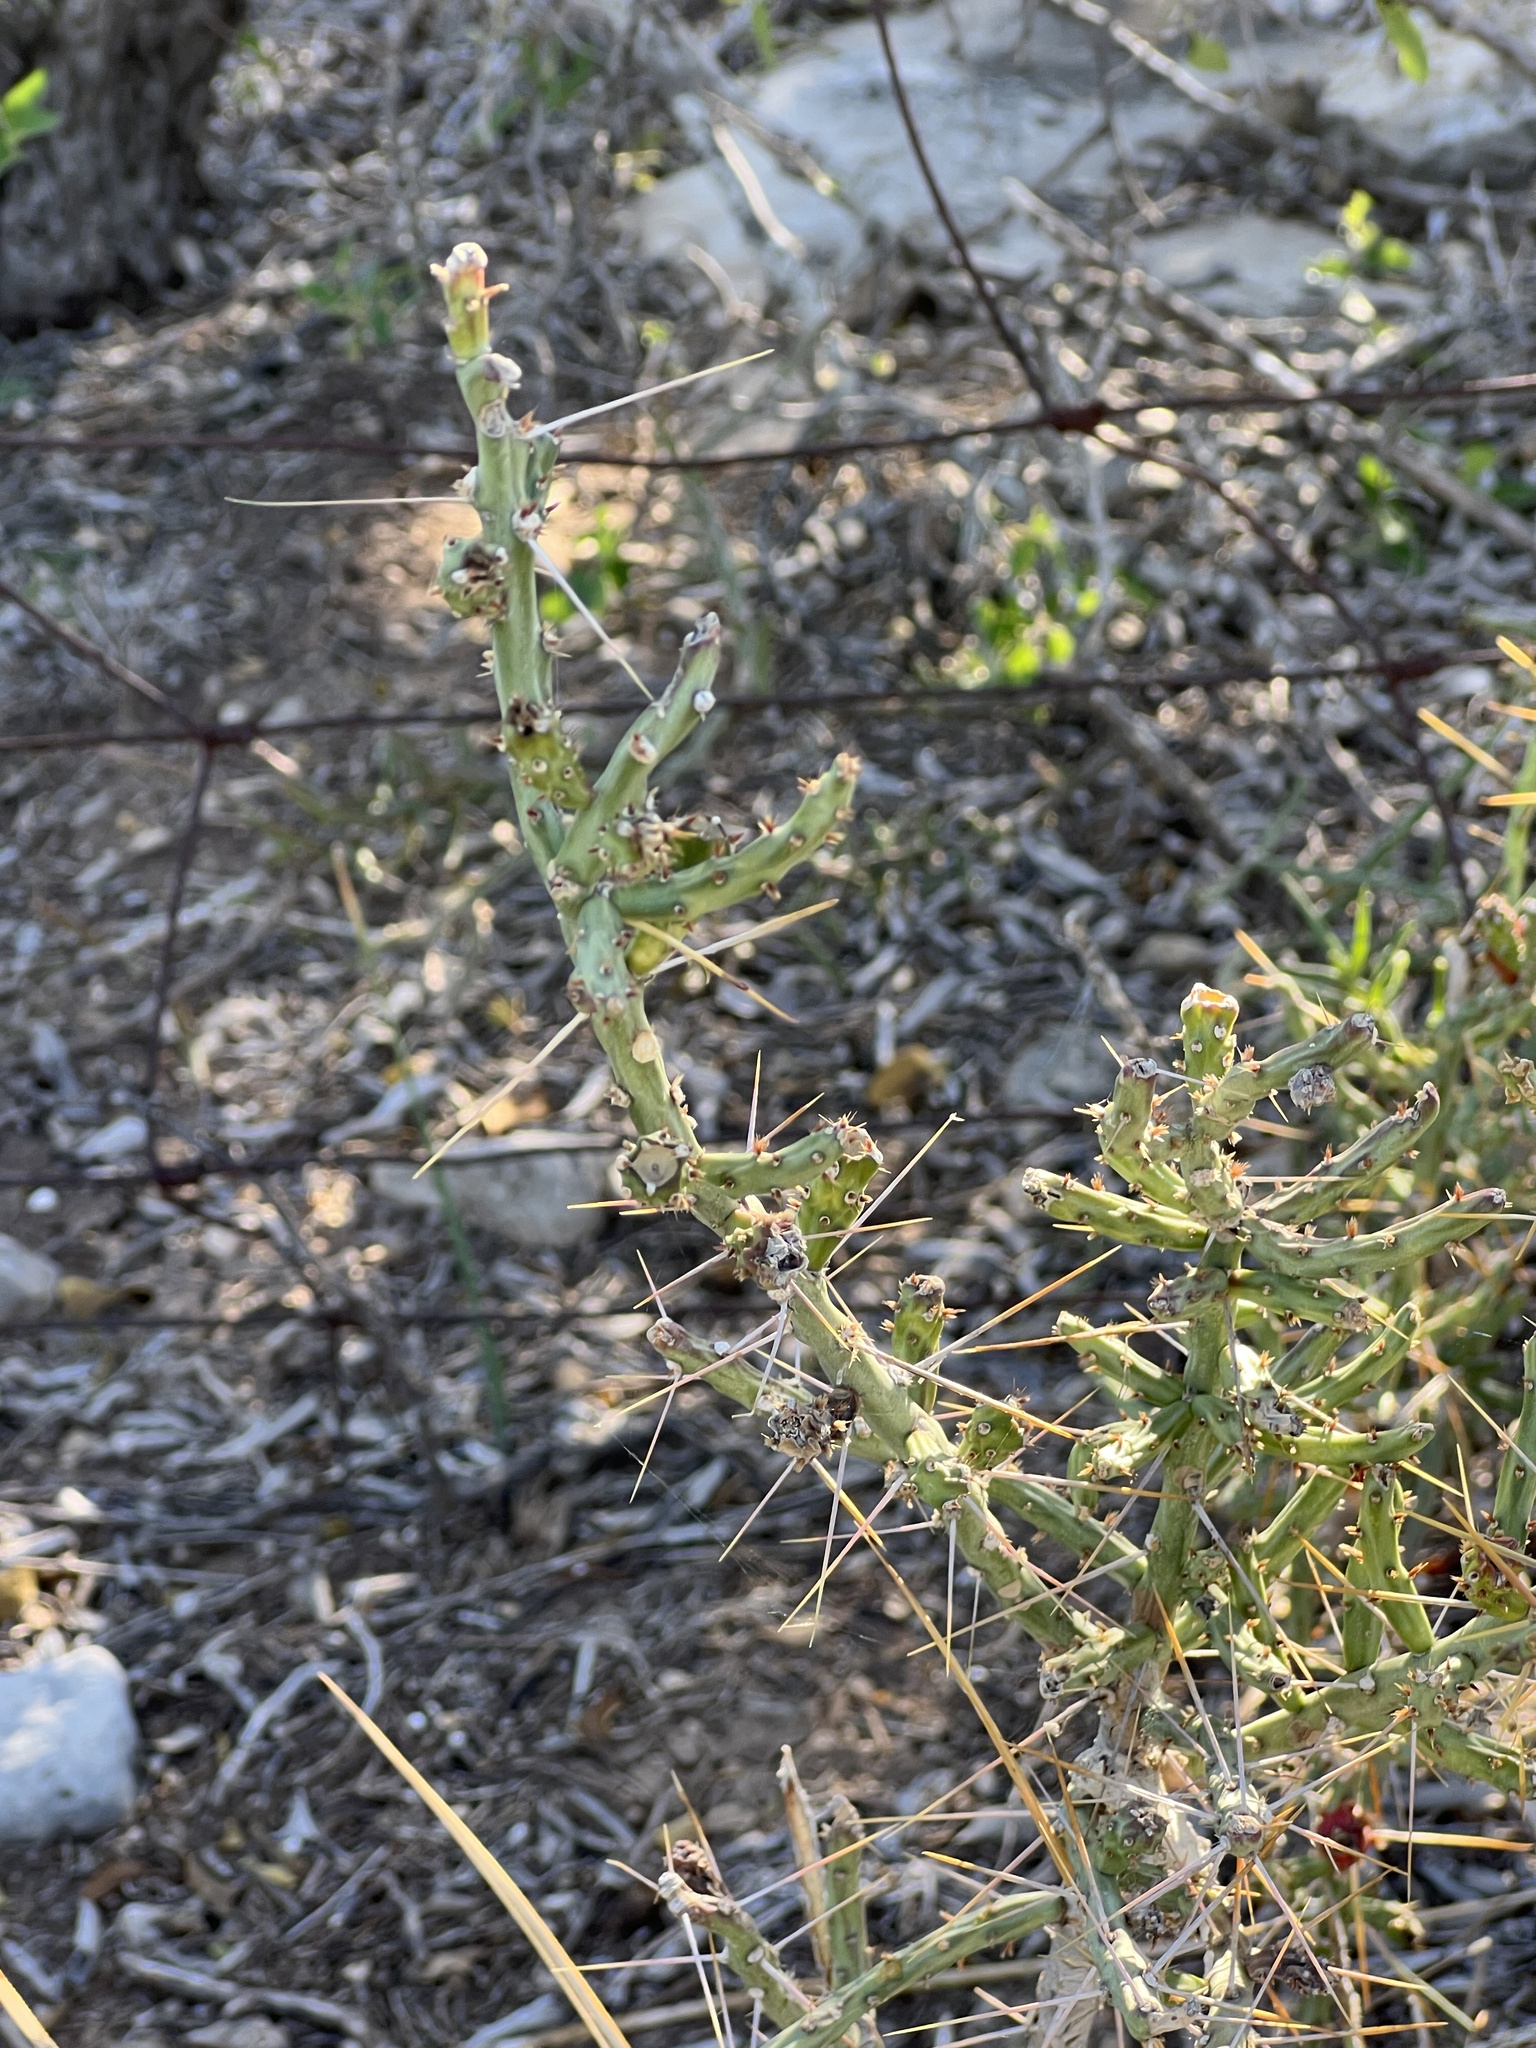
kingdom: Plantae
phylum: Tracheophyta
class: Magnoliopsida
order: Caryophyllales
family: Cactaceae
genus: Cylindropuntia
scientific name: Cylindropuntia leptocaulis
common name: Christmas cactus
